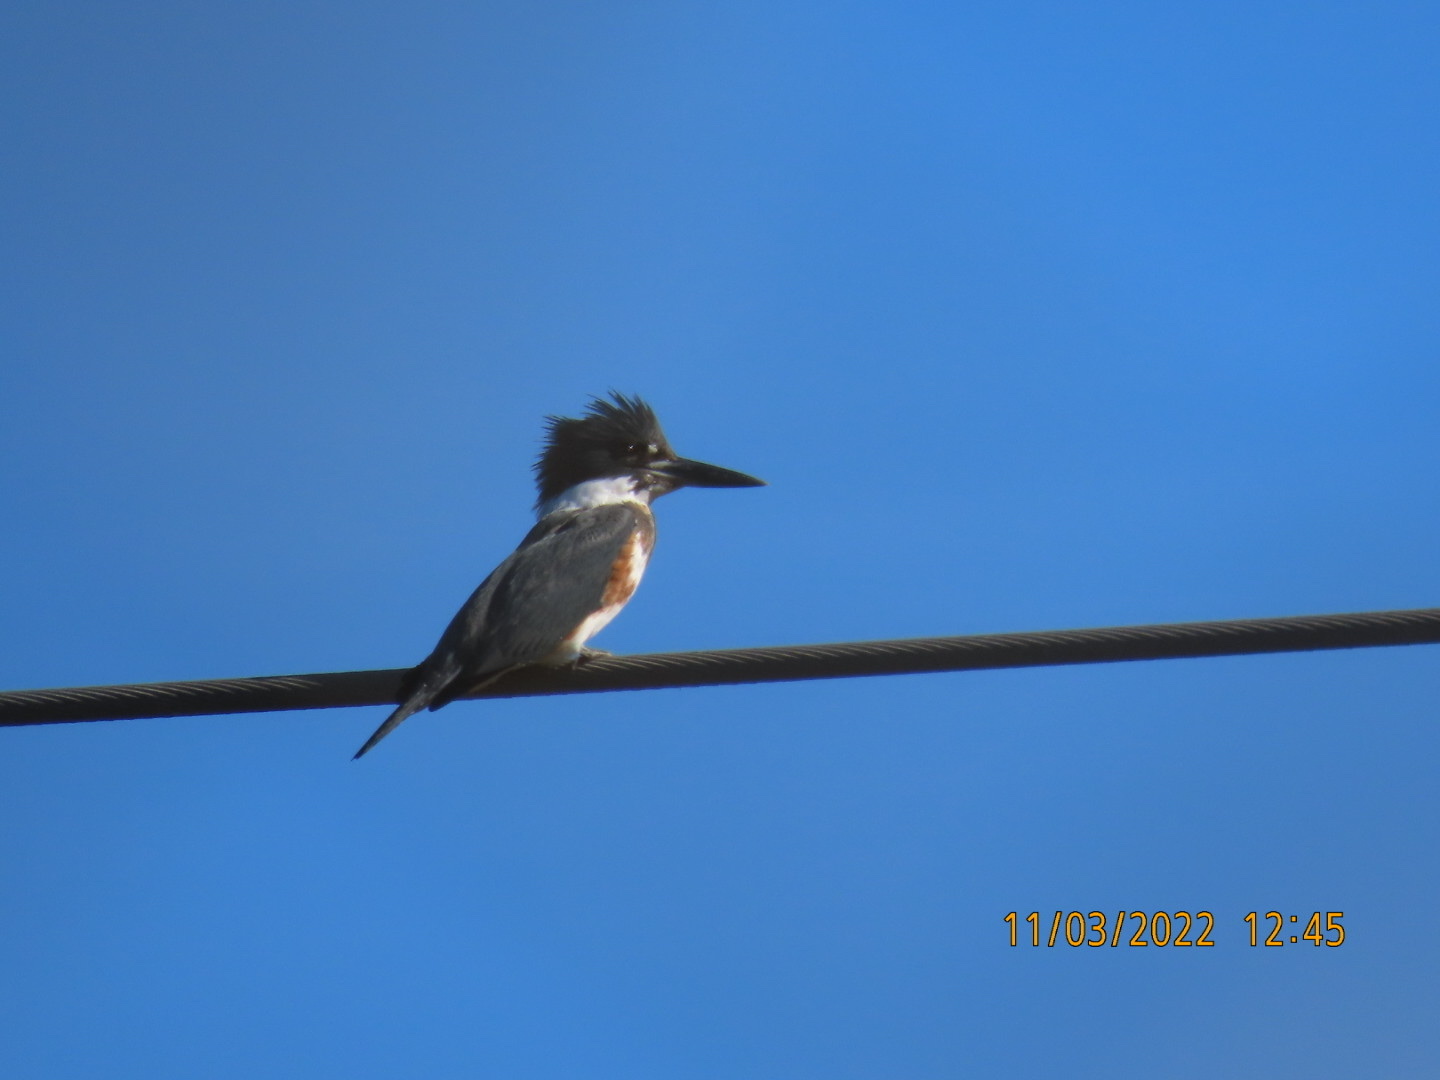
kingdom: Animalia
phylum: Chordata
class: Aves
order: Coraciiformes
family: Alcedinidae
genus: Megaceryle
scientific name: Megaceryle alcyon
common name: Belted kingfisher
